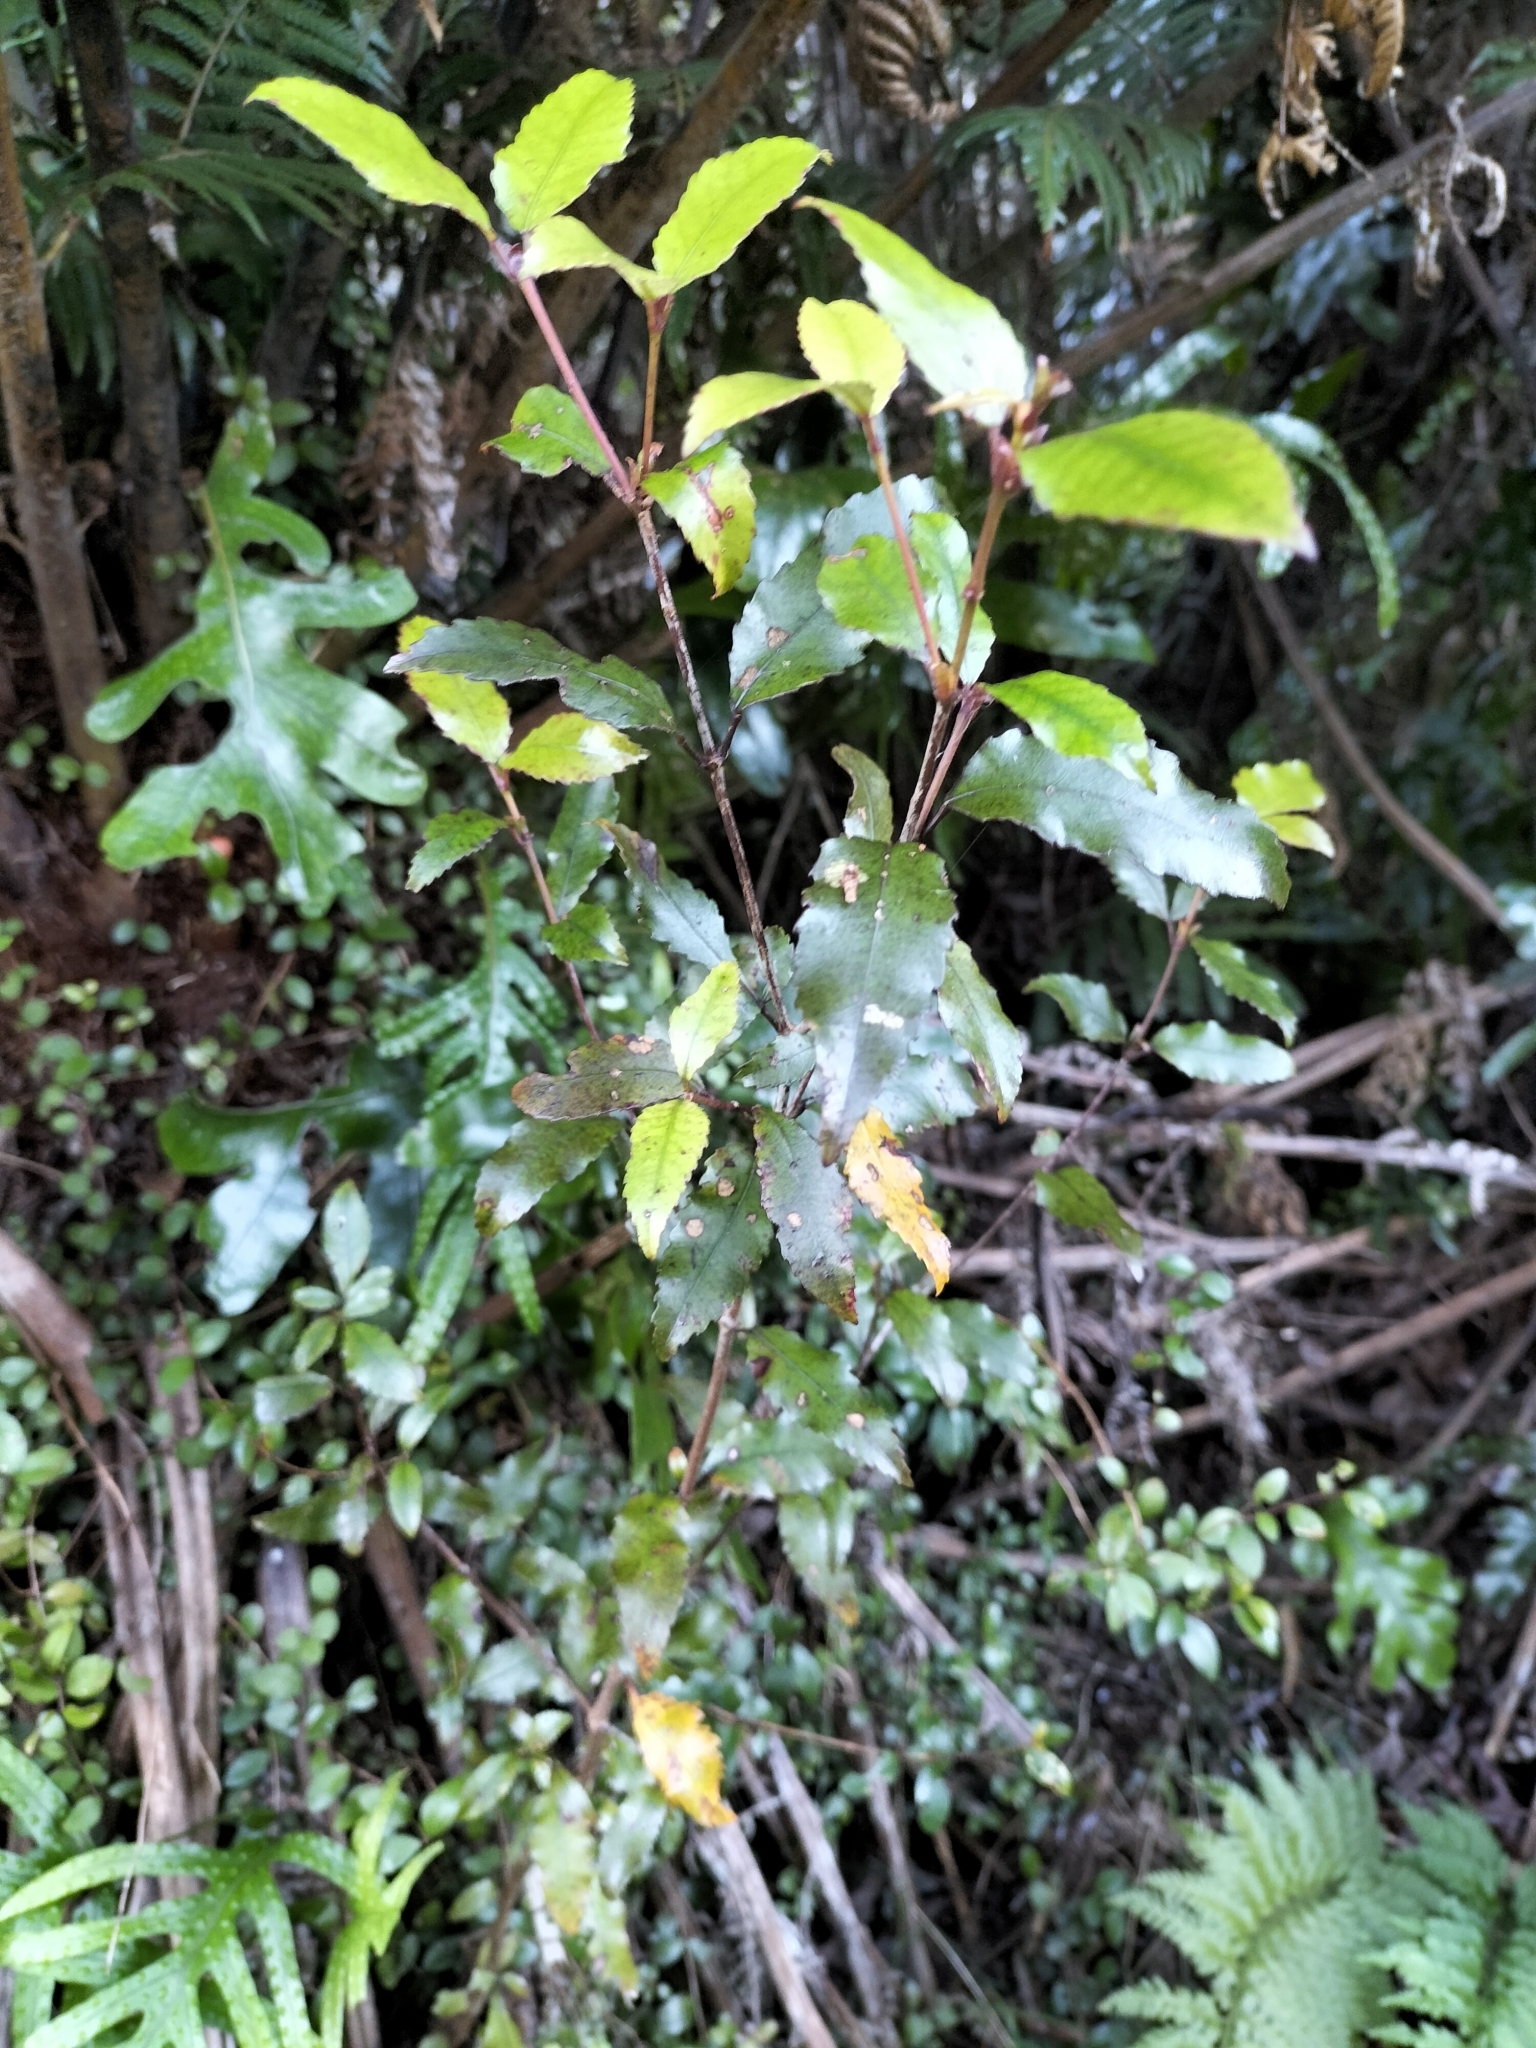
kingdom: Plantae
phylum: Tracheophyta
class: Magnoliopsida
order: Oxalidales
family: Cunoniaceae
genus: Pterophylla
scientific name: Pterophylla racemosa
